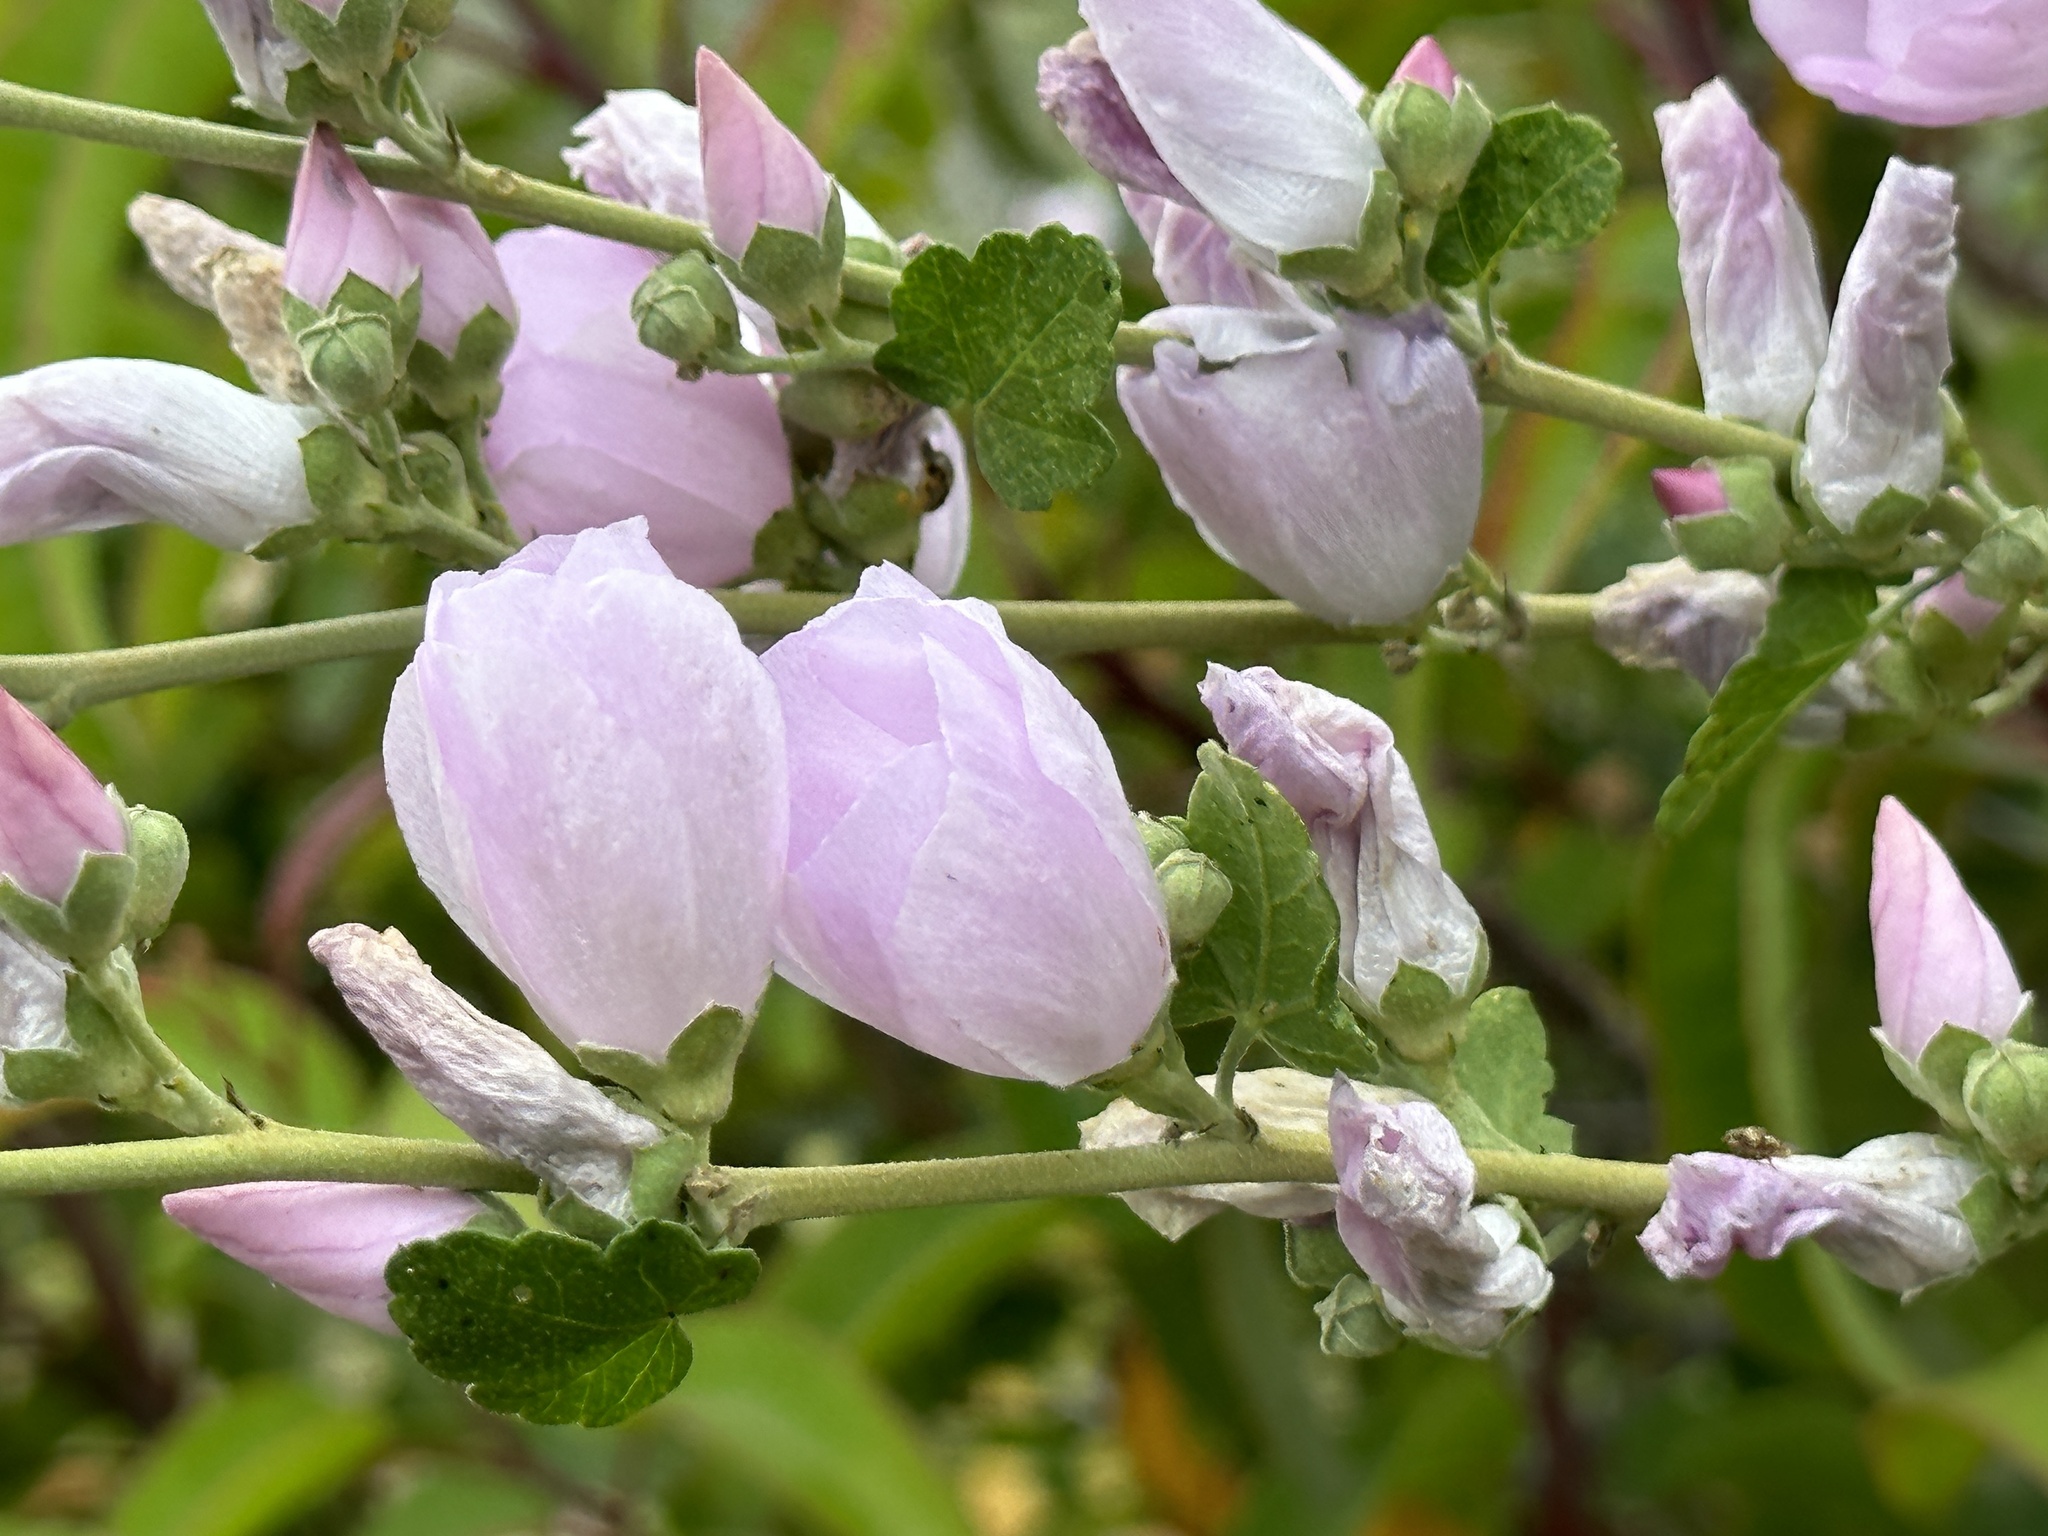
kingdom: Plantae
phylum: Tracheophyta
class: Magnoliopsida
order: Malvales
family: Malvaceae
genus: Malacothamnus
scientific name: Malacothamnus fasciculatus
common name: Sant cruz island bush-mallow
